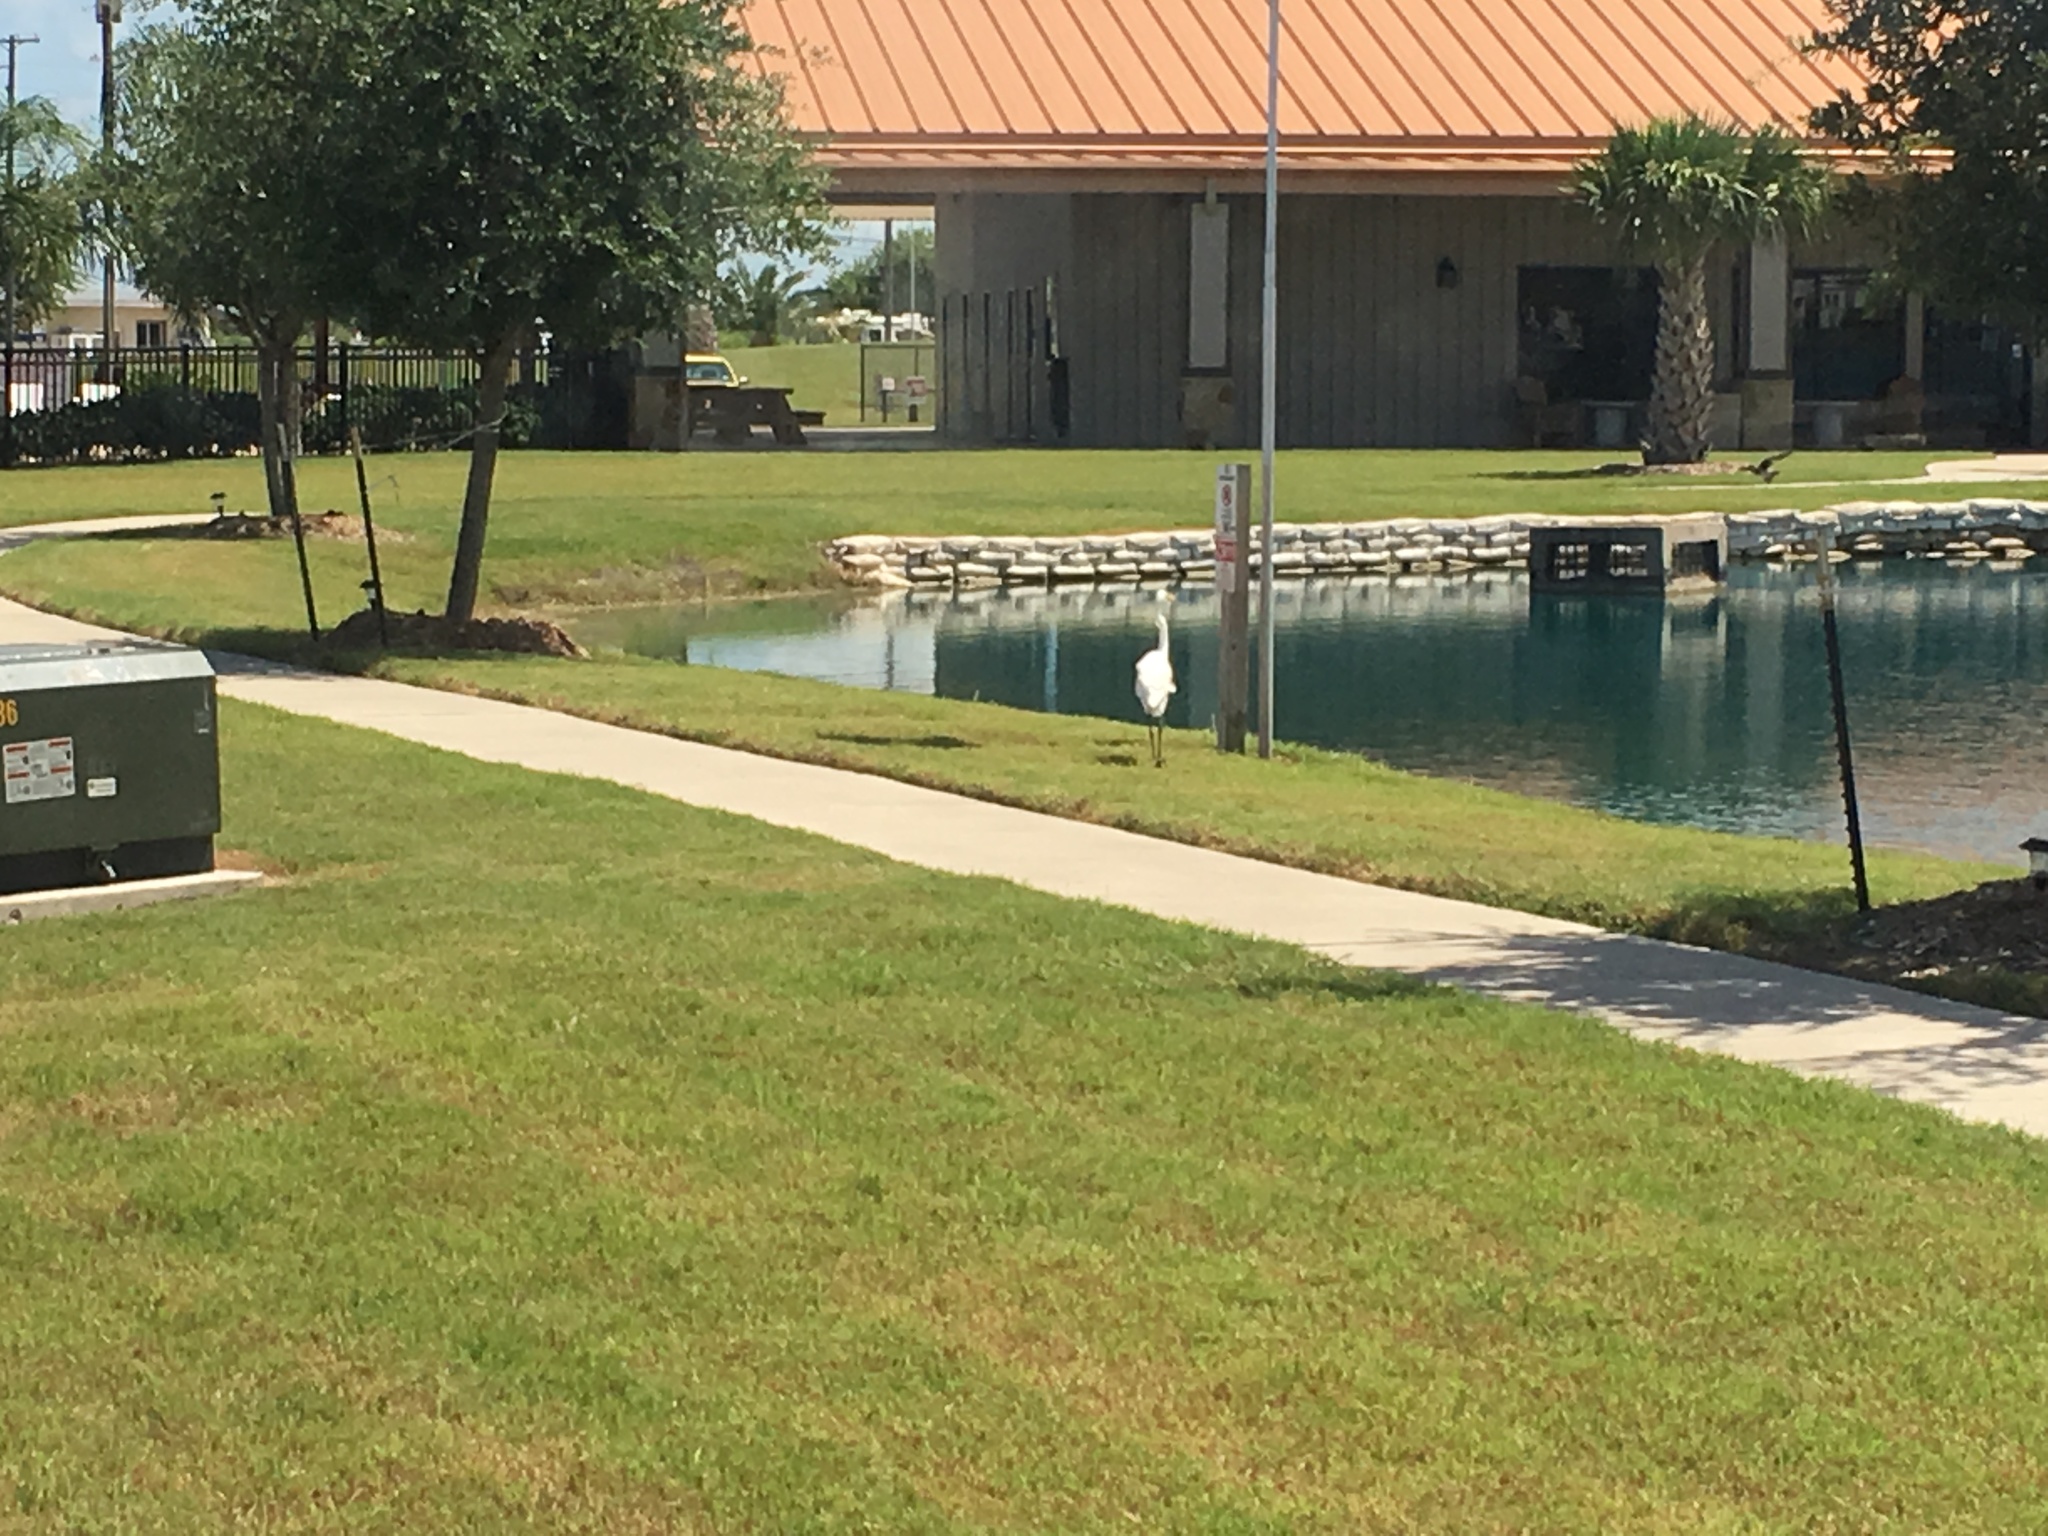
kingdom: Animalia
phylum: Chordata
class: Aves
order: Pelecaniformes
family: Ardeidae
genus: Ardea
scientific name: Ardea alba
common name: Great egret
